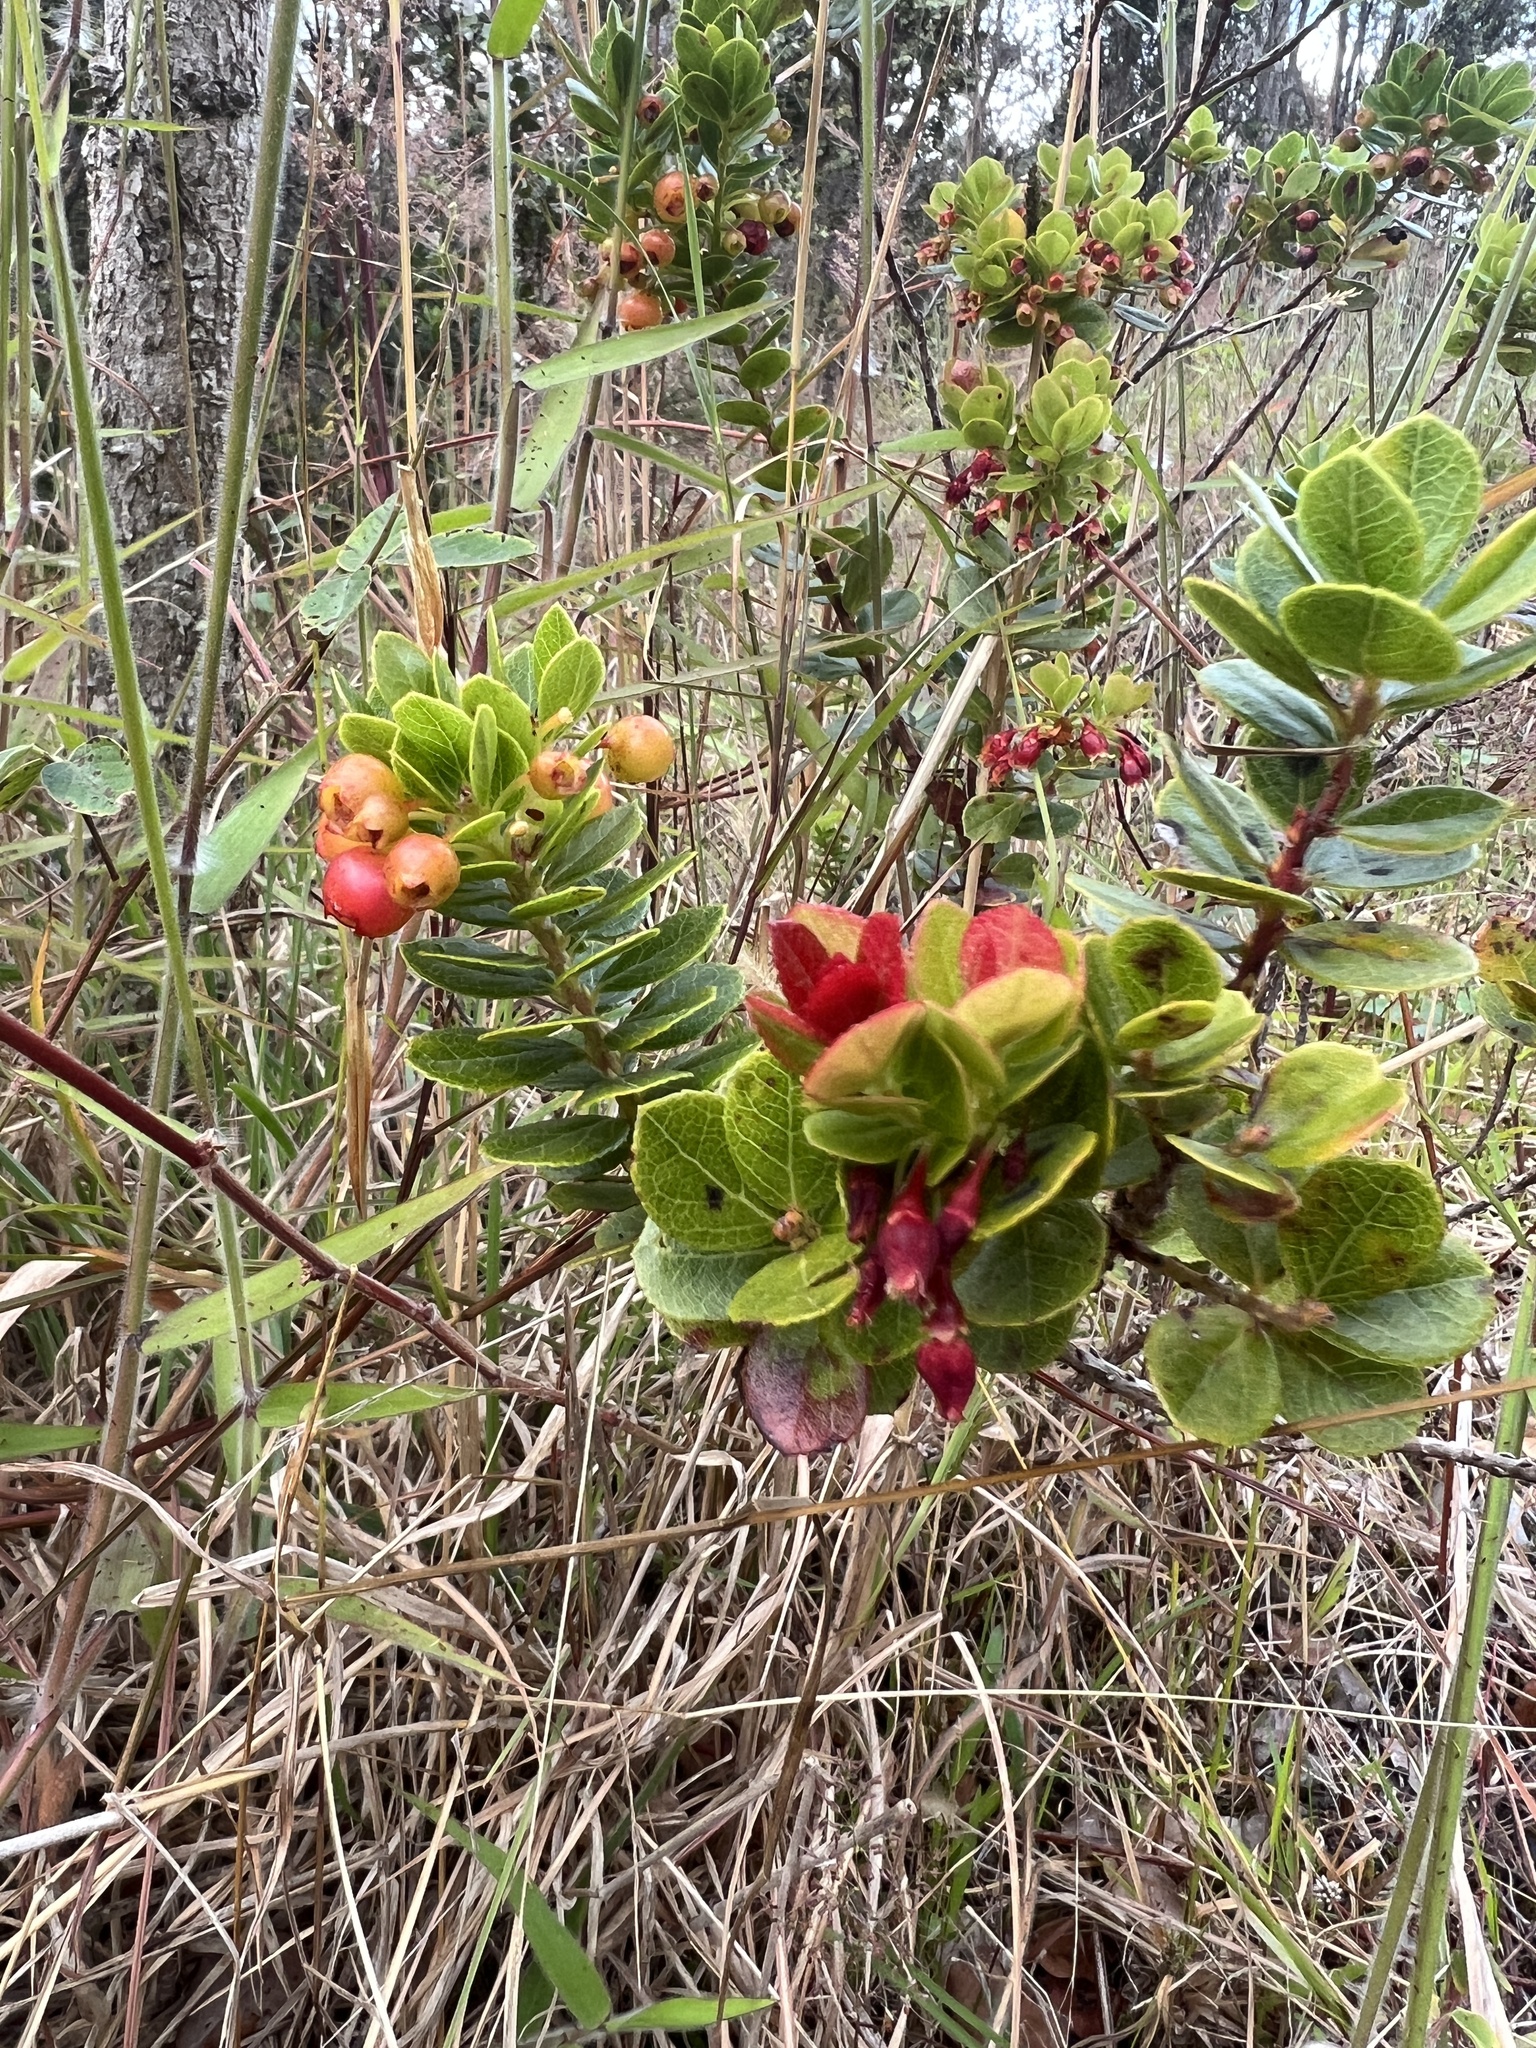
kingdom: Plantae
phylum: Tracheophyta
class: Magnoliopsida
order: Ericales
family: Ericaceae
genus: Vaccinium
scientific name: Vaccinium reticulatum
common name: Ohelo
